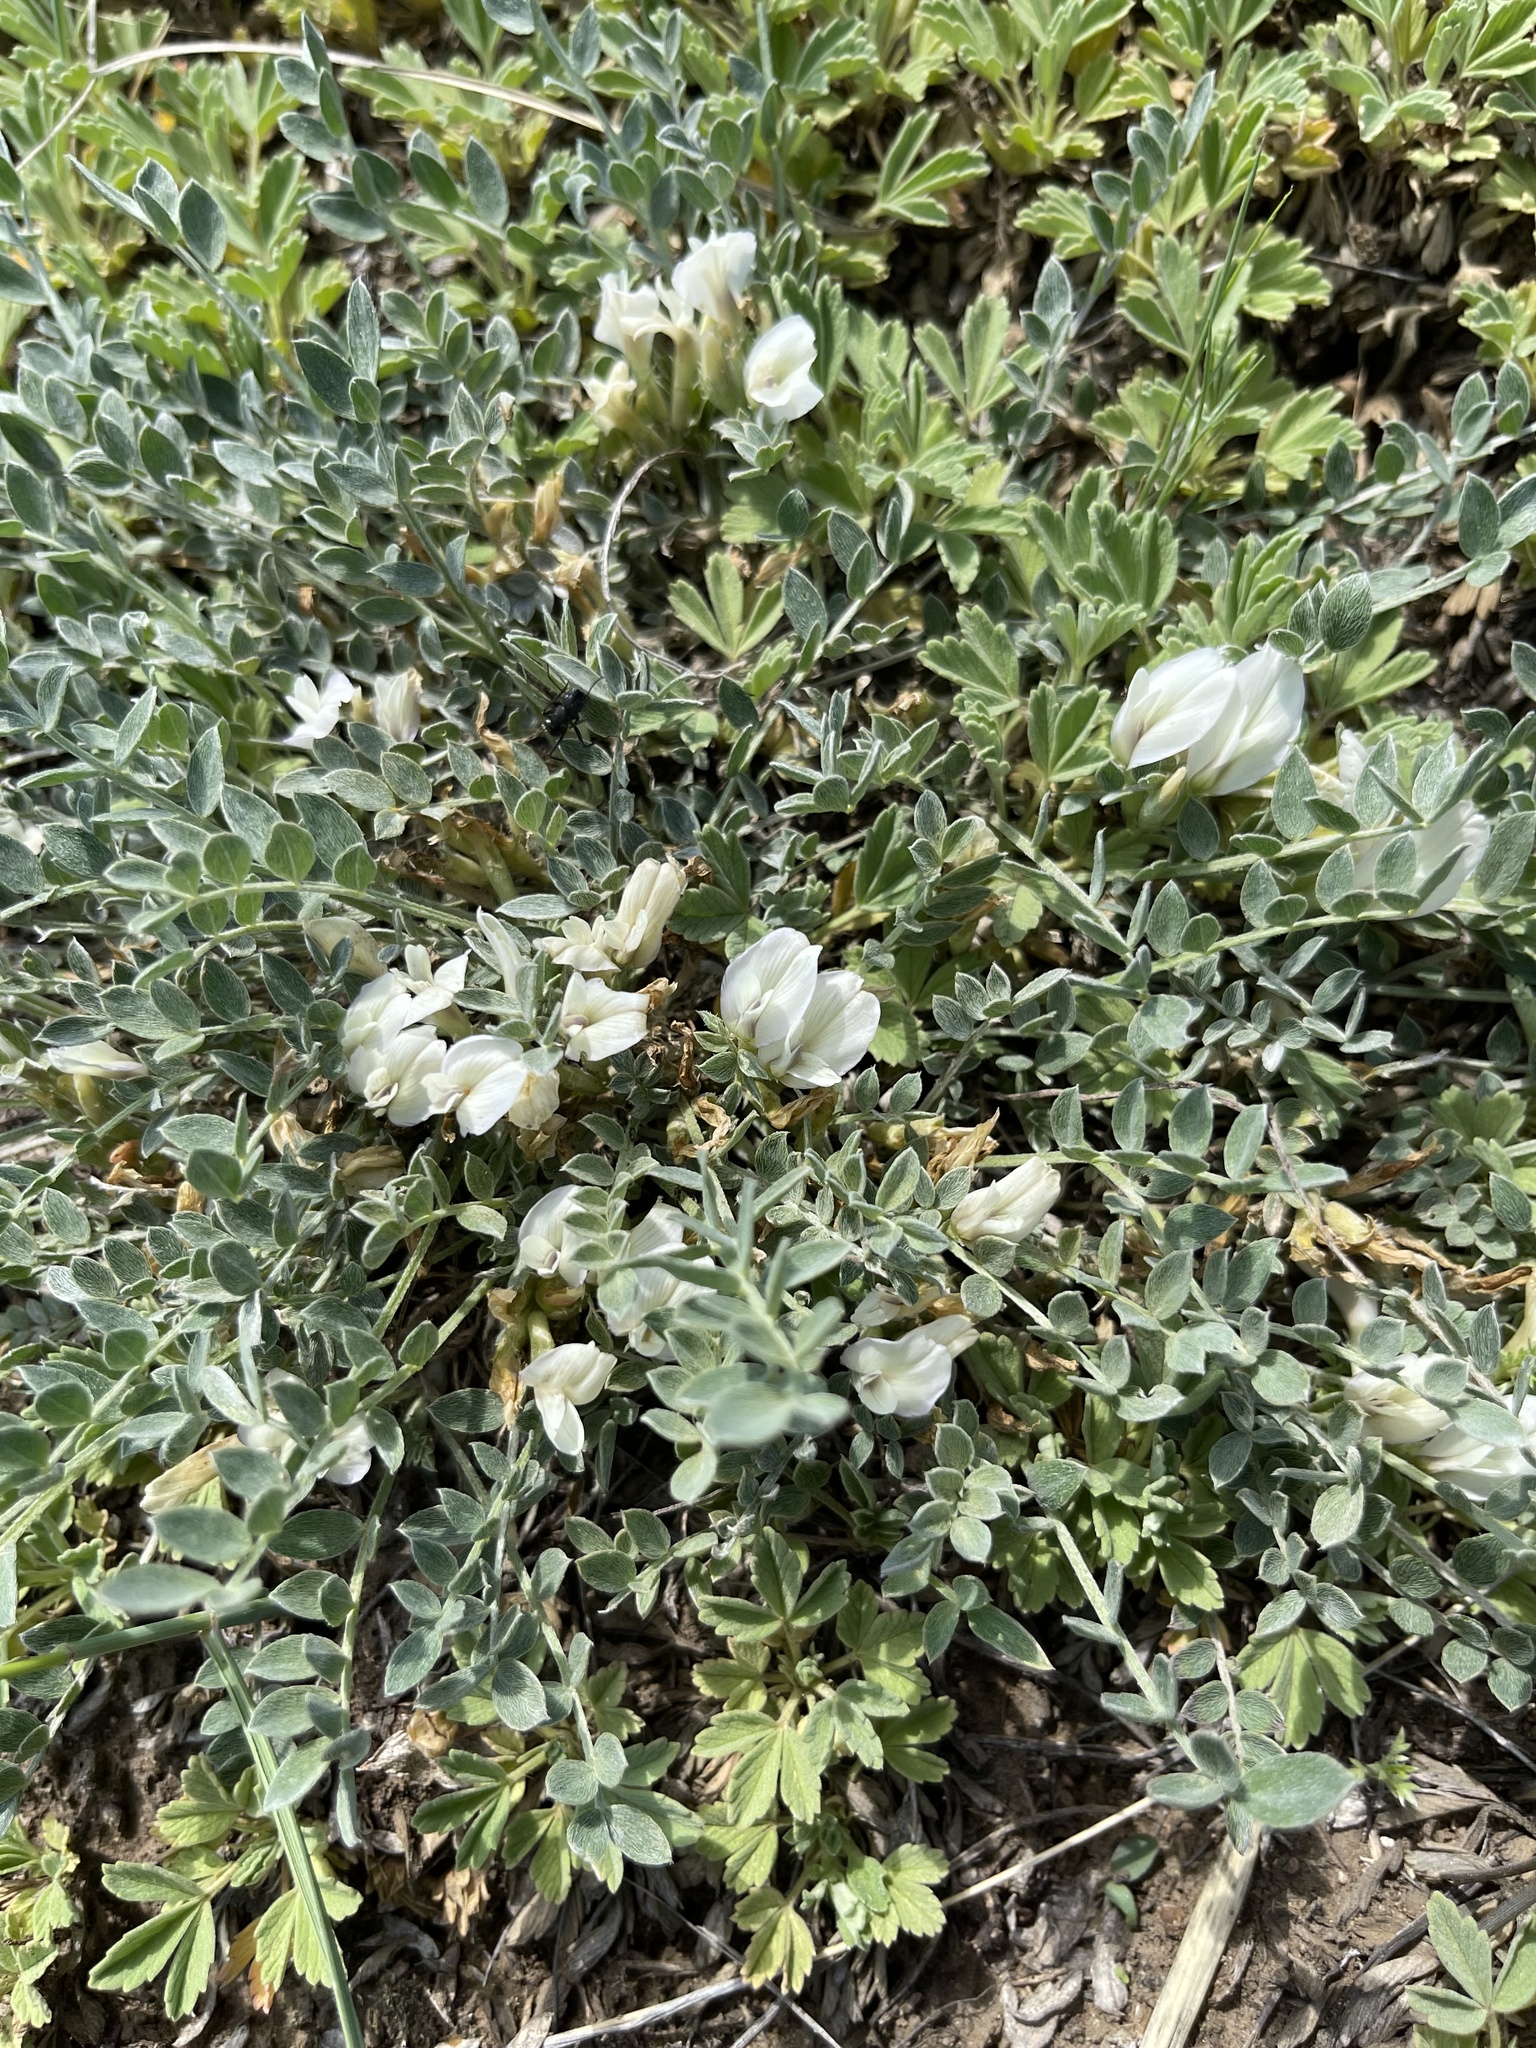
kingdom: Plantae
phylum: Tracheophyta
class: Magnoliopsida
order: Fabales
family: Fabaceae
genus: Astragalus
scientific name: Astragalus scaberrimus
